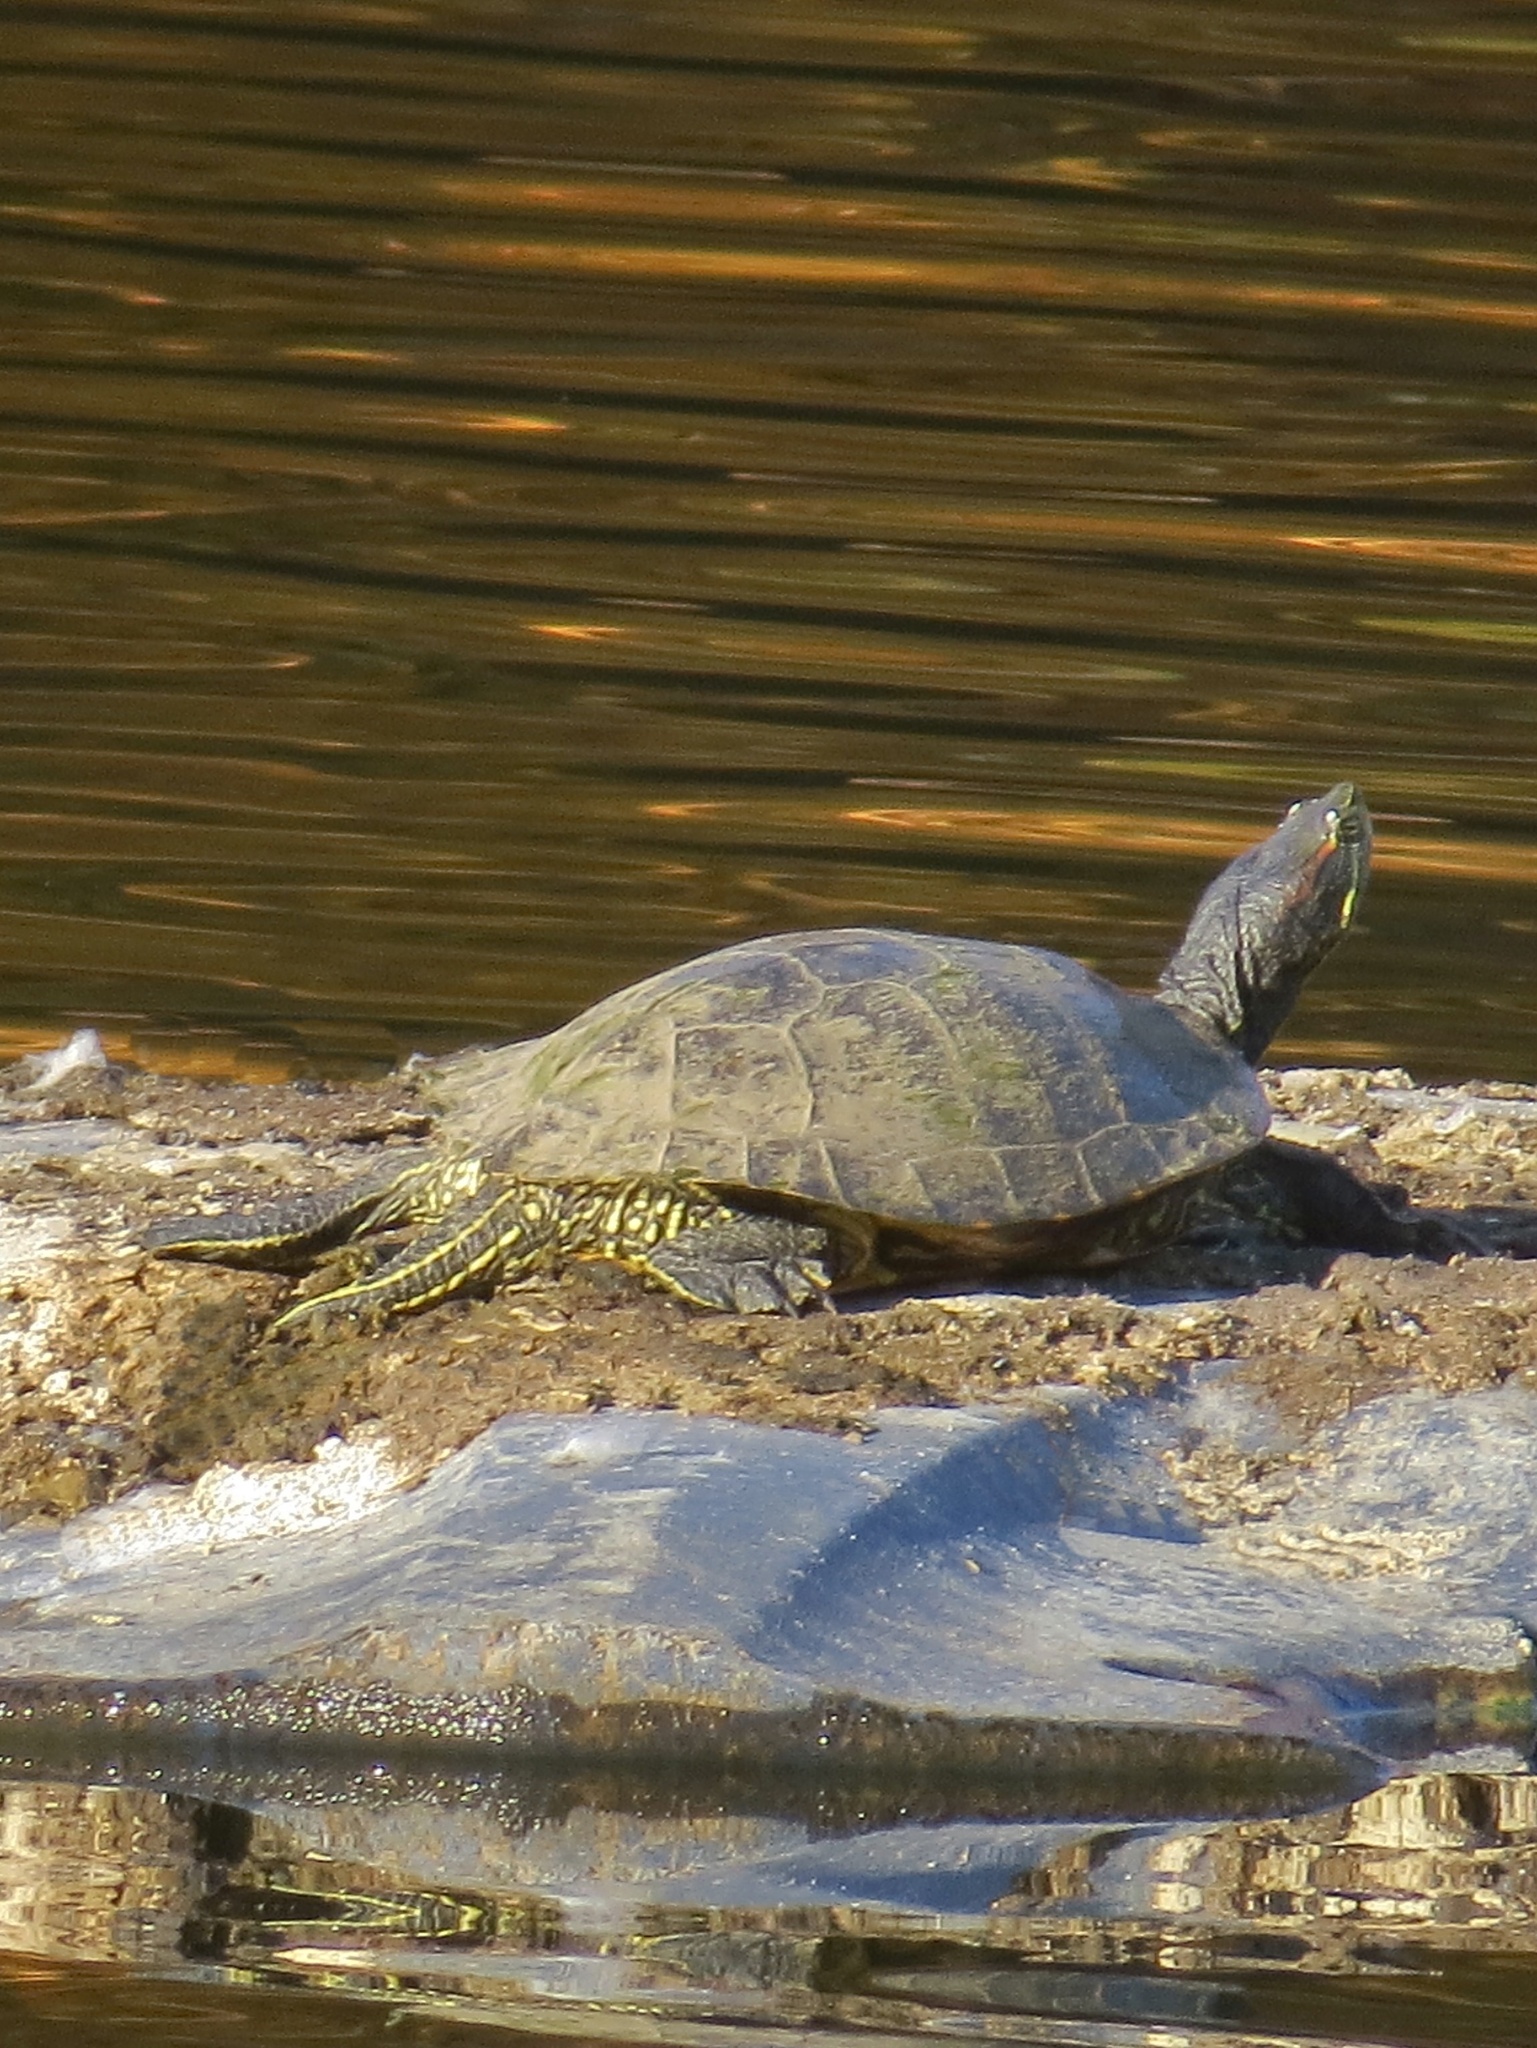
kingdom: Animalia
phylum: Chordata
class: Testudines
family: Emydidae
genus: Trachemys
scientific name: Trachemys scripta
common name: Slider
